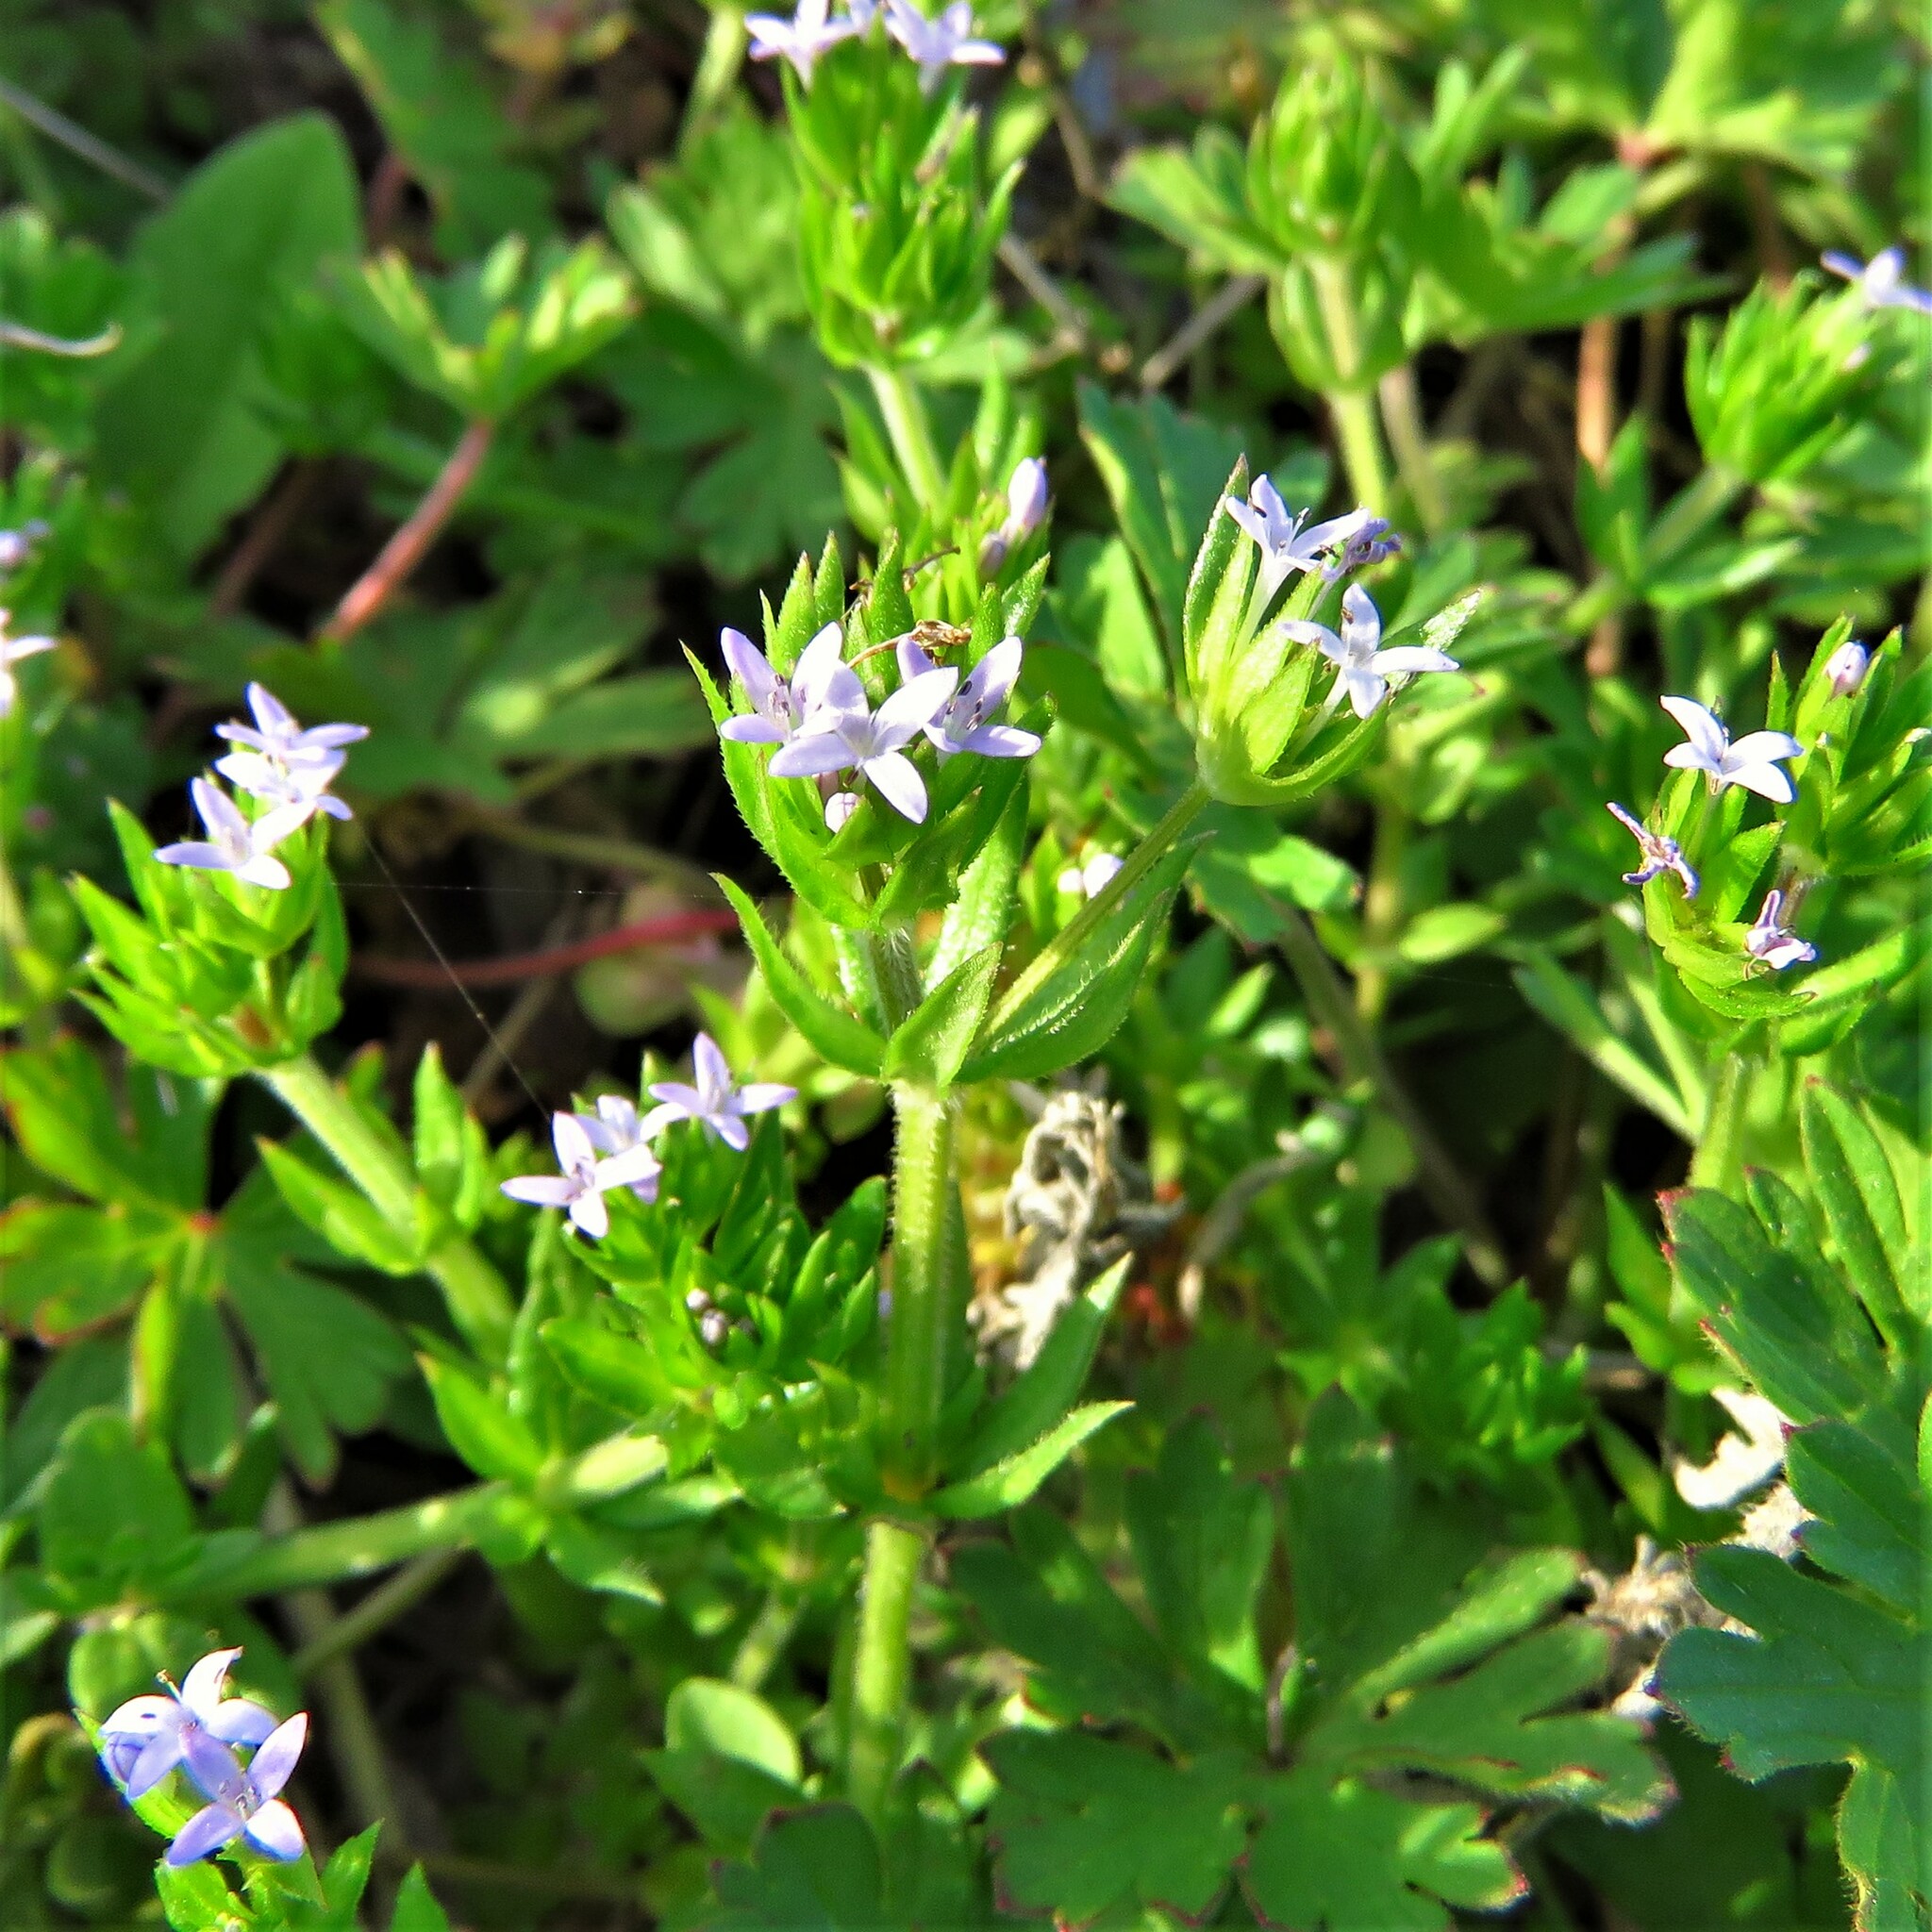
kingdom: Plantae
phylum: Tracheophyta
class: Magnoliopsida
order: Gentianales
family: Rubiaceae
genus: Sherardia
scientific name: Sherardia arvensis
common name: Field madder
